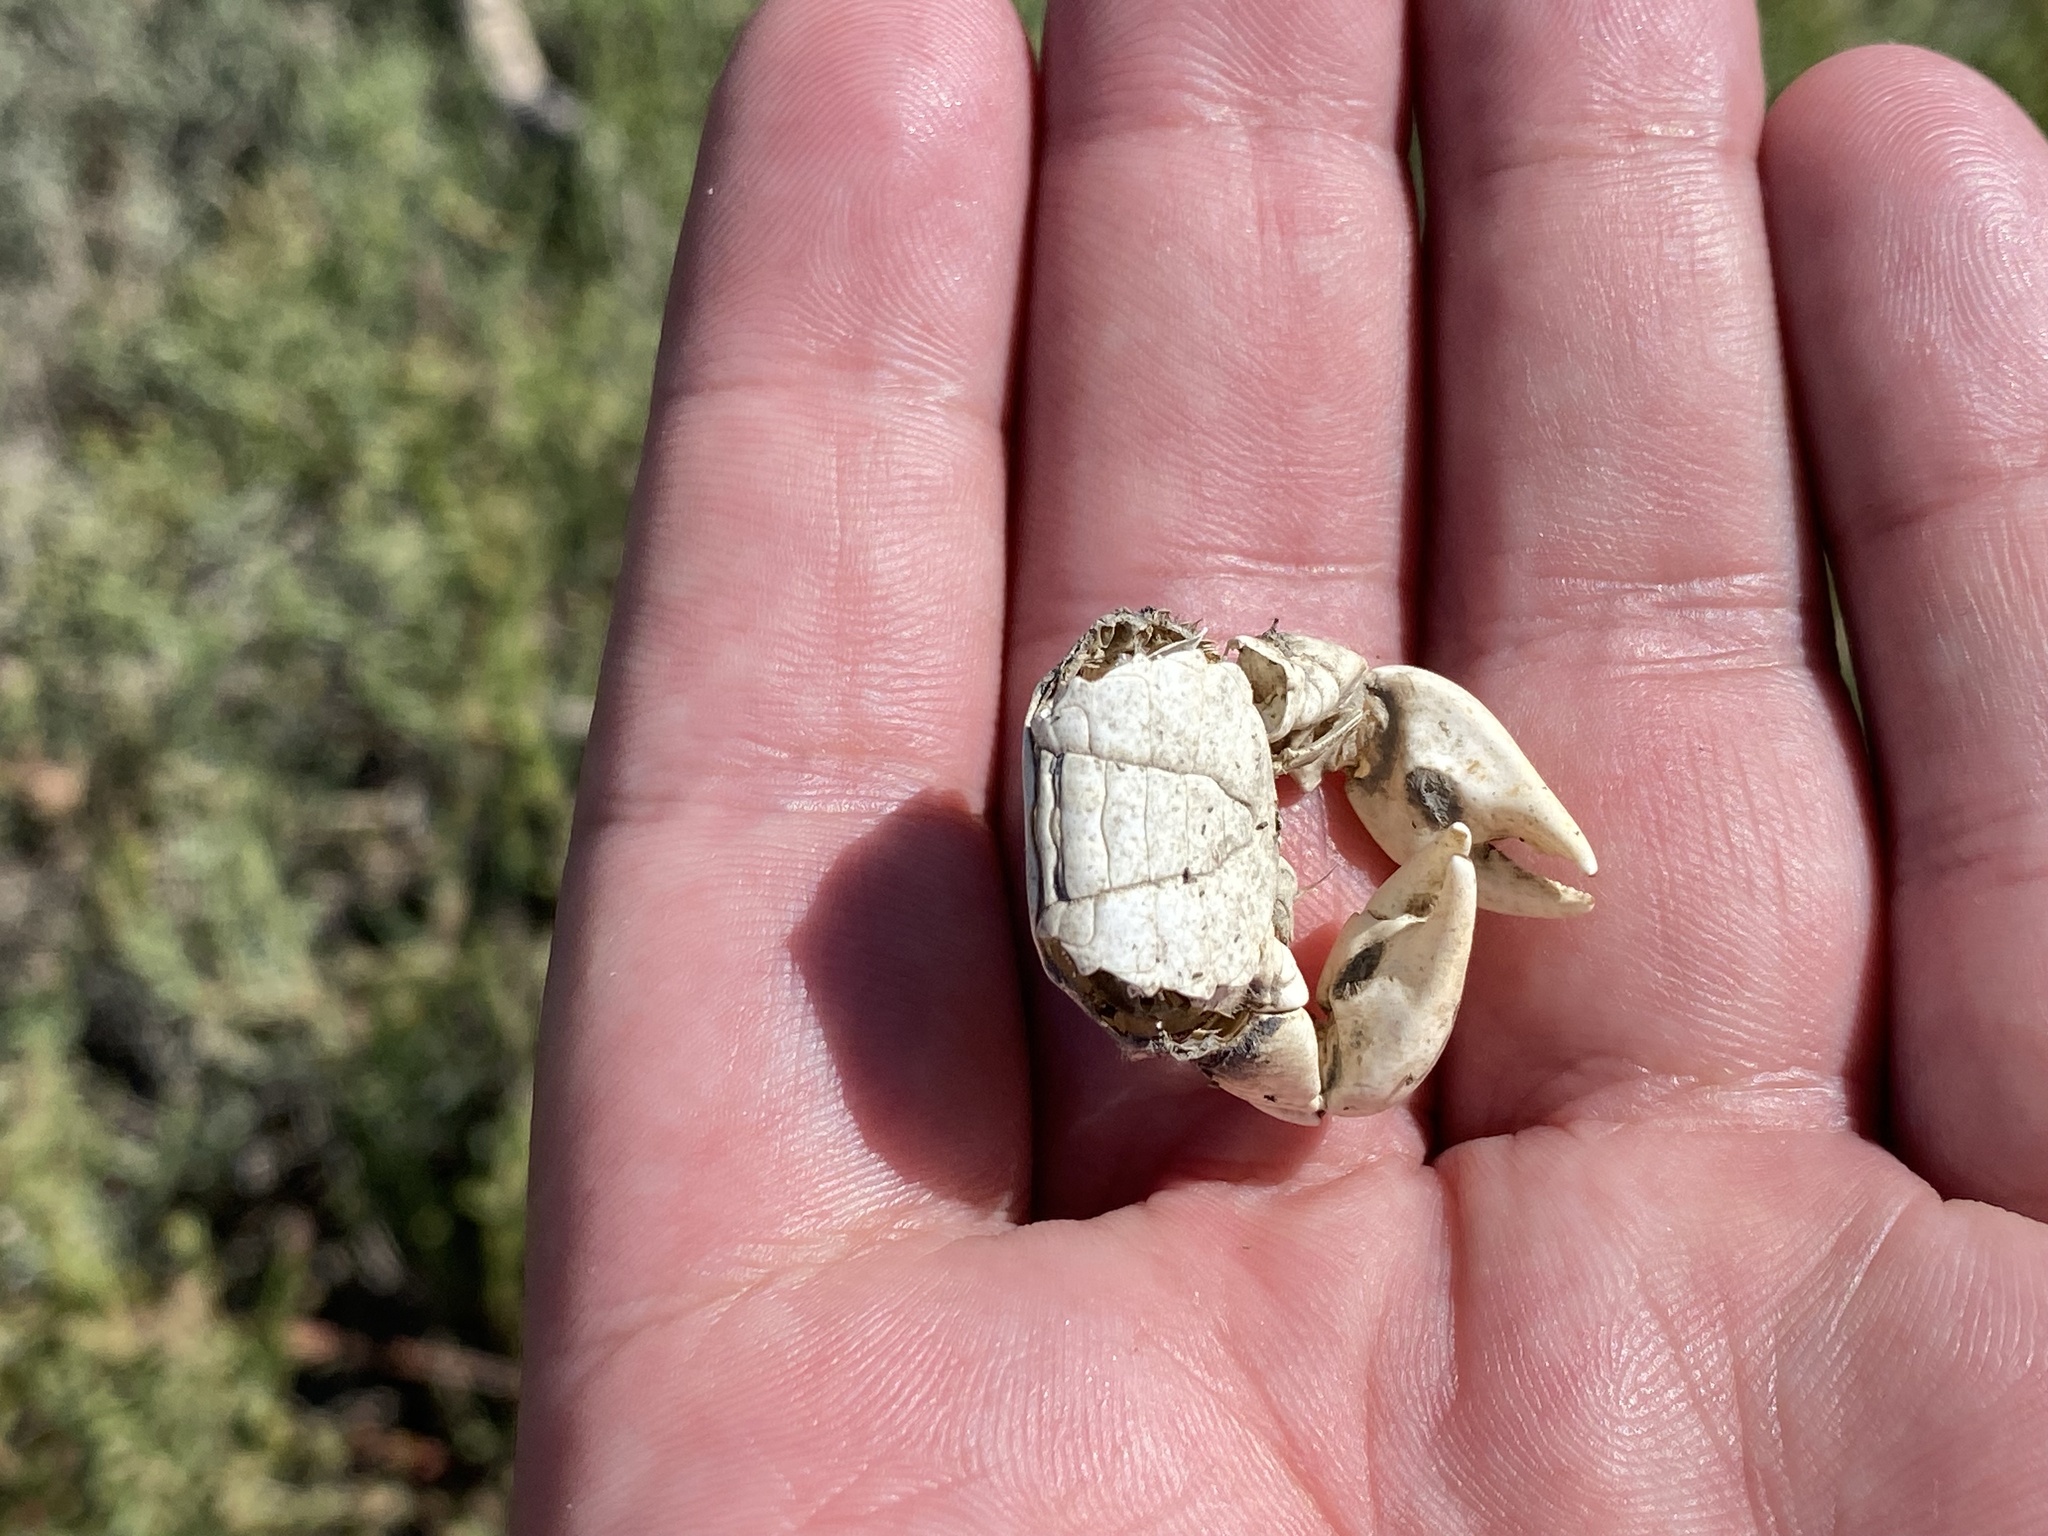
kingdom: Animalia
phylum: Arthropoda
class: Malacostraca
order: Decapoda
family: Varunidae
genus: Hemigrapsus
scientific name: Hemigrapsus oregonensis
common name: Yellow shore crab
